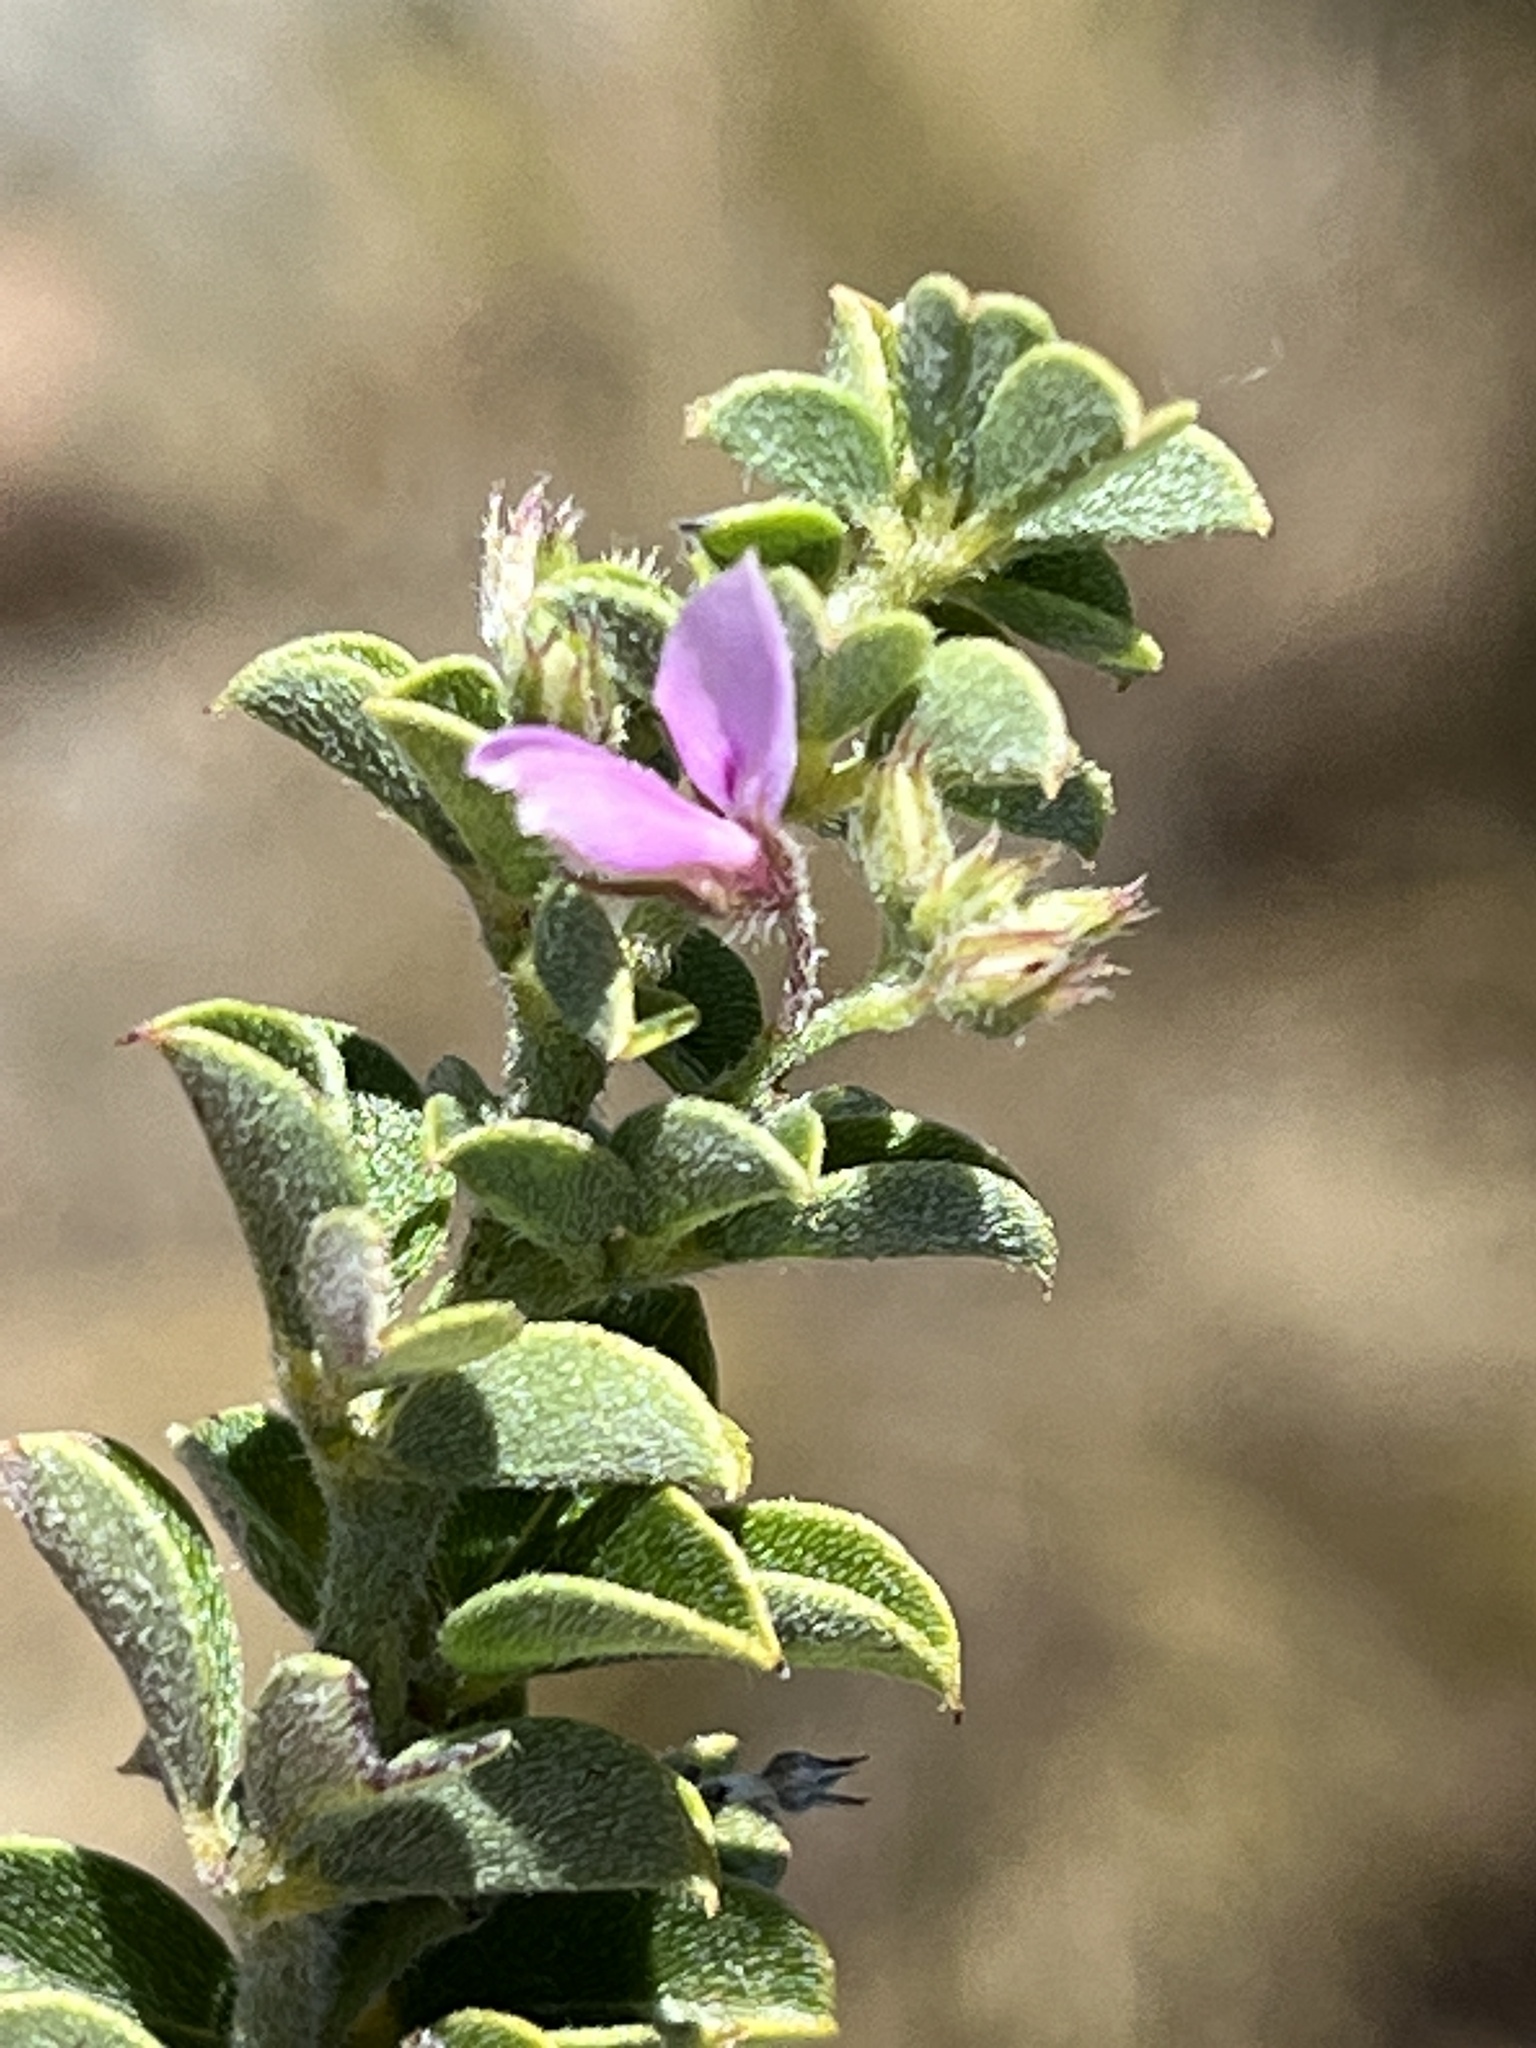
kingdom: Plantae
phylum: Tracheophyta
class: Magnoliopsida
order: Fabales
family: Fabaceae
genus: Indigofera
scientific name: Indigofera candolleana
